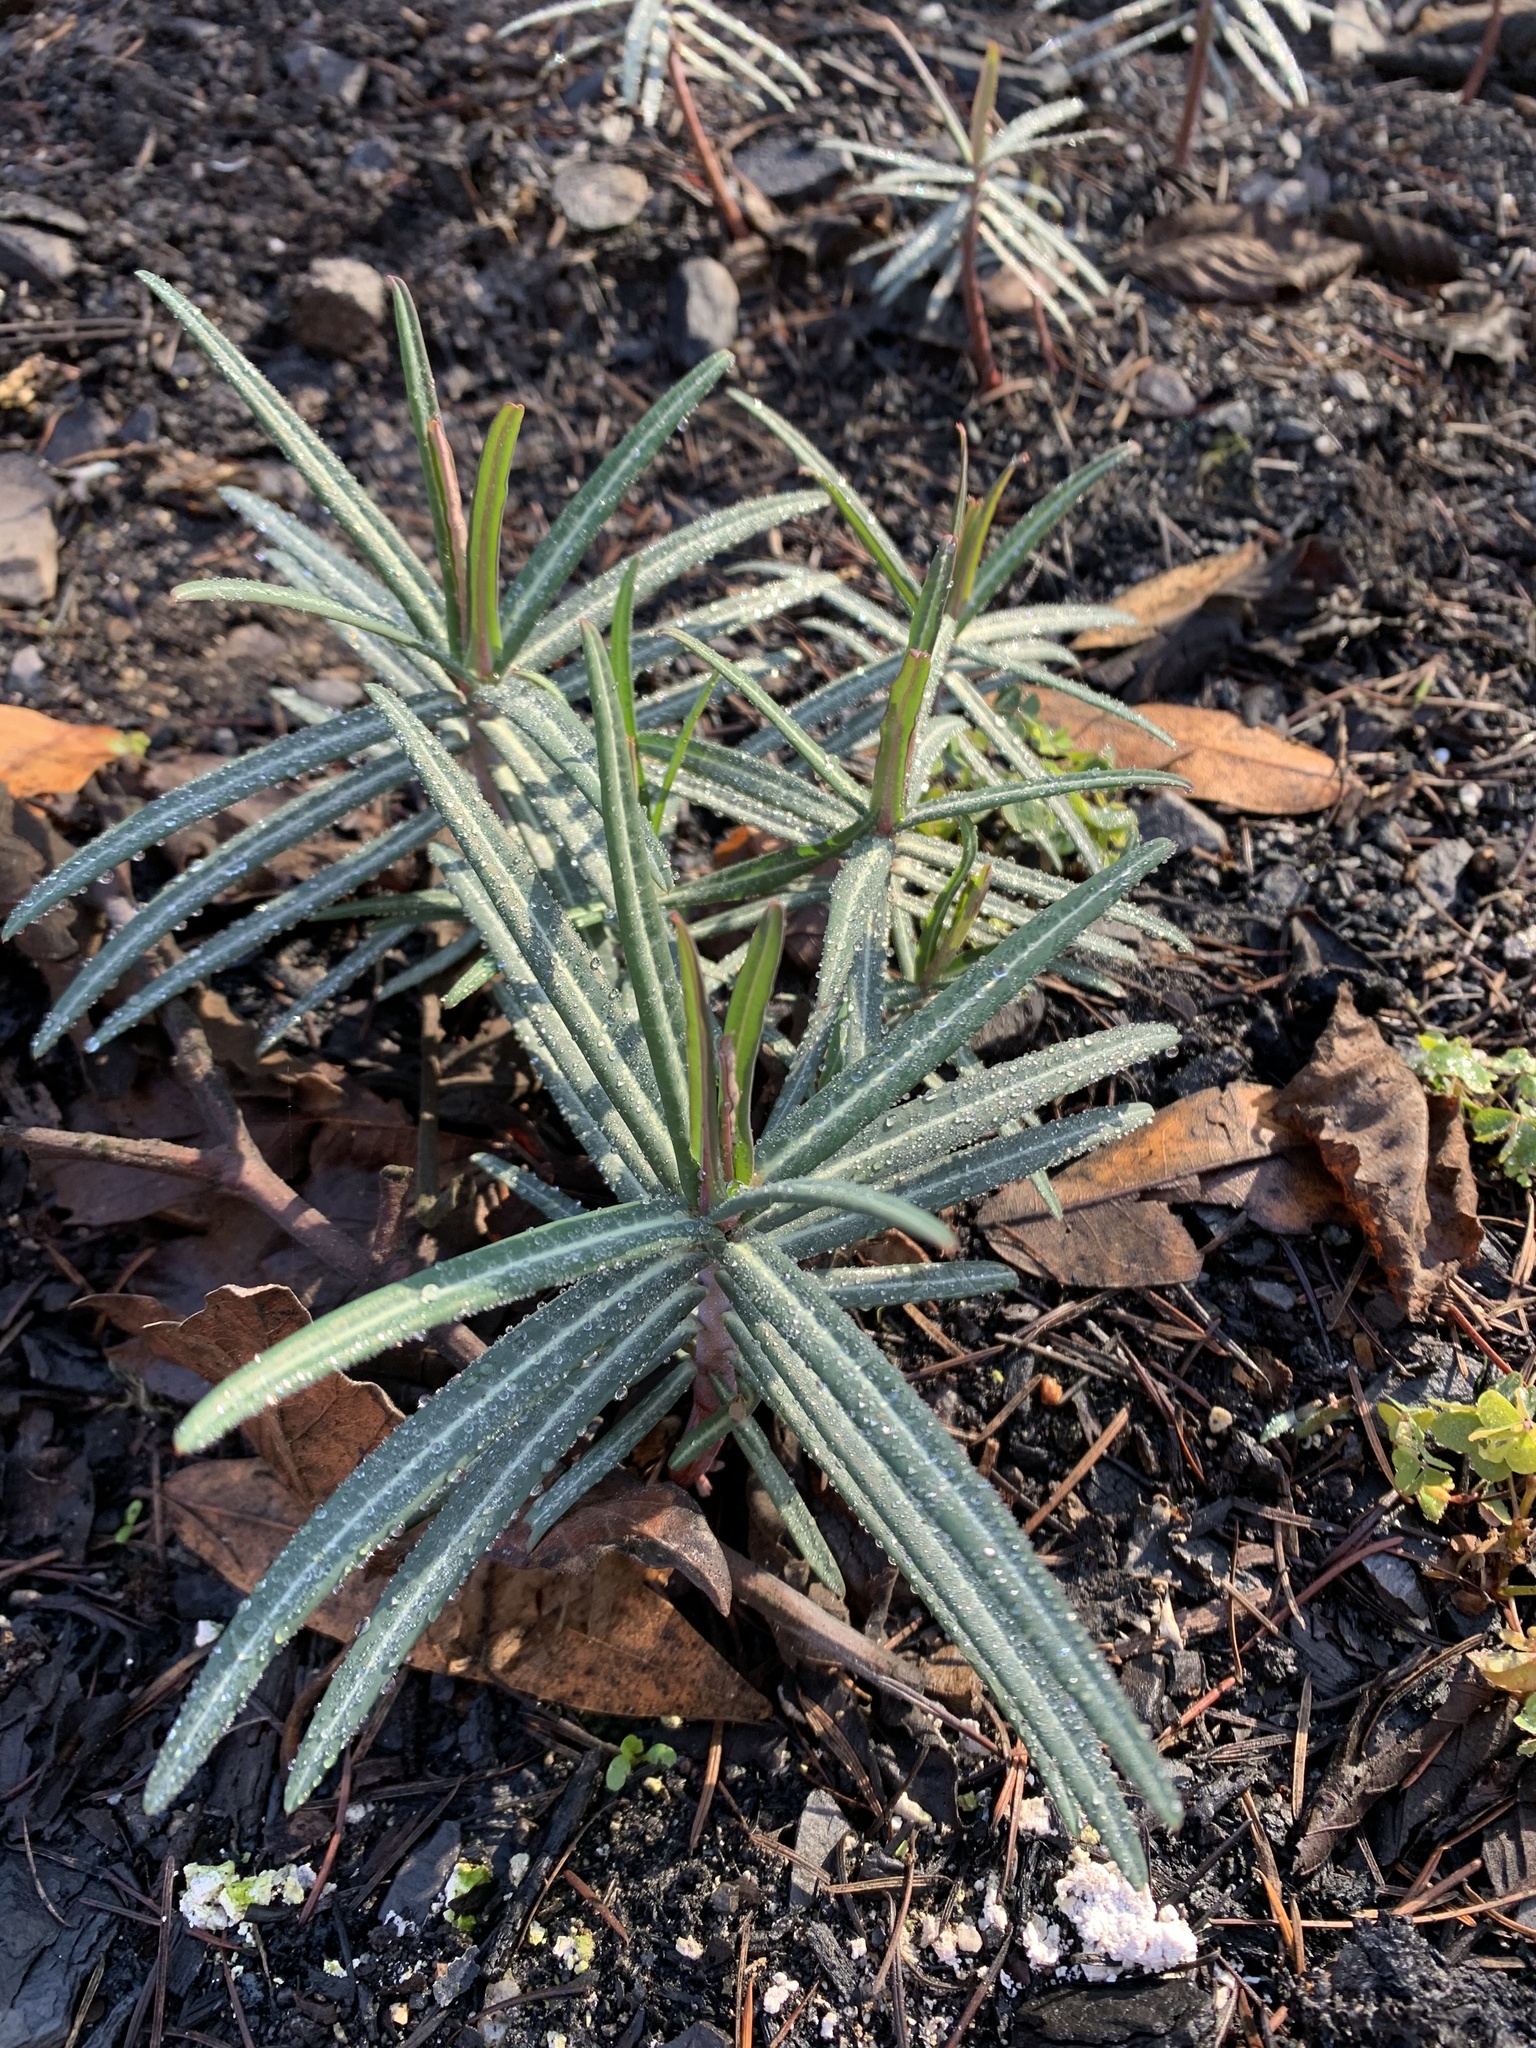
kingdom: Plantae
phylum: Tracheophyta
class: Magnoliopsida
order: Malpighiales
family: Euphorbiaceae
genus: Euphorbia
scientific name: Euphorbia lathyris
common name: Caper spurge
